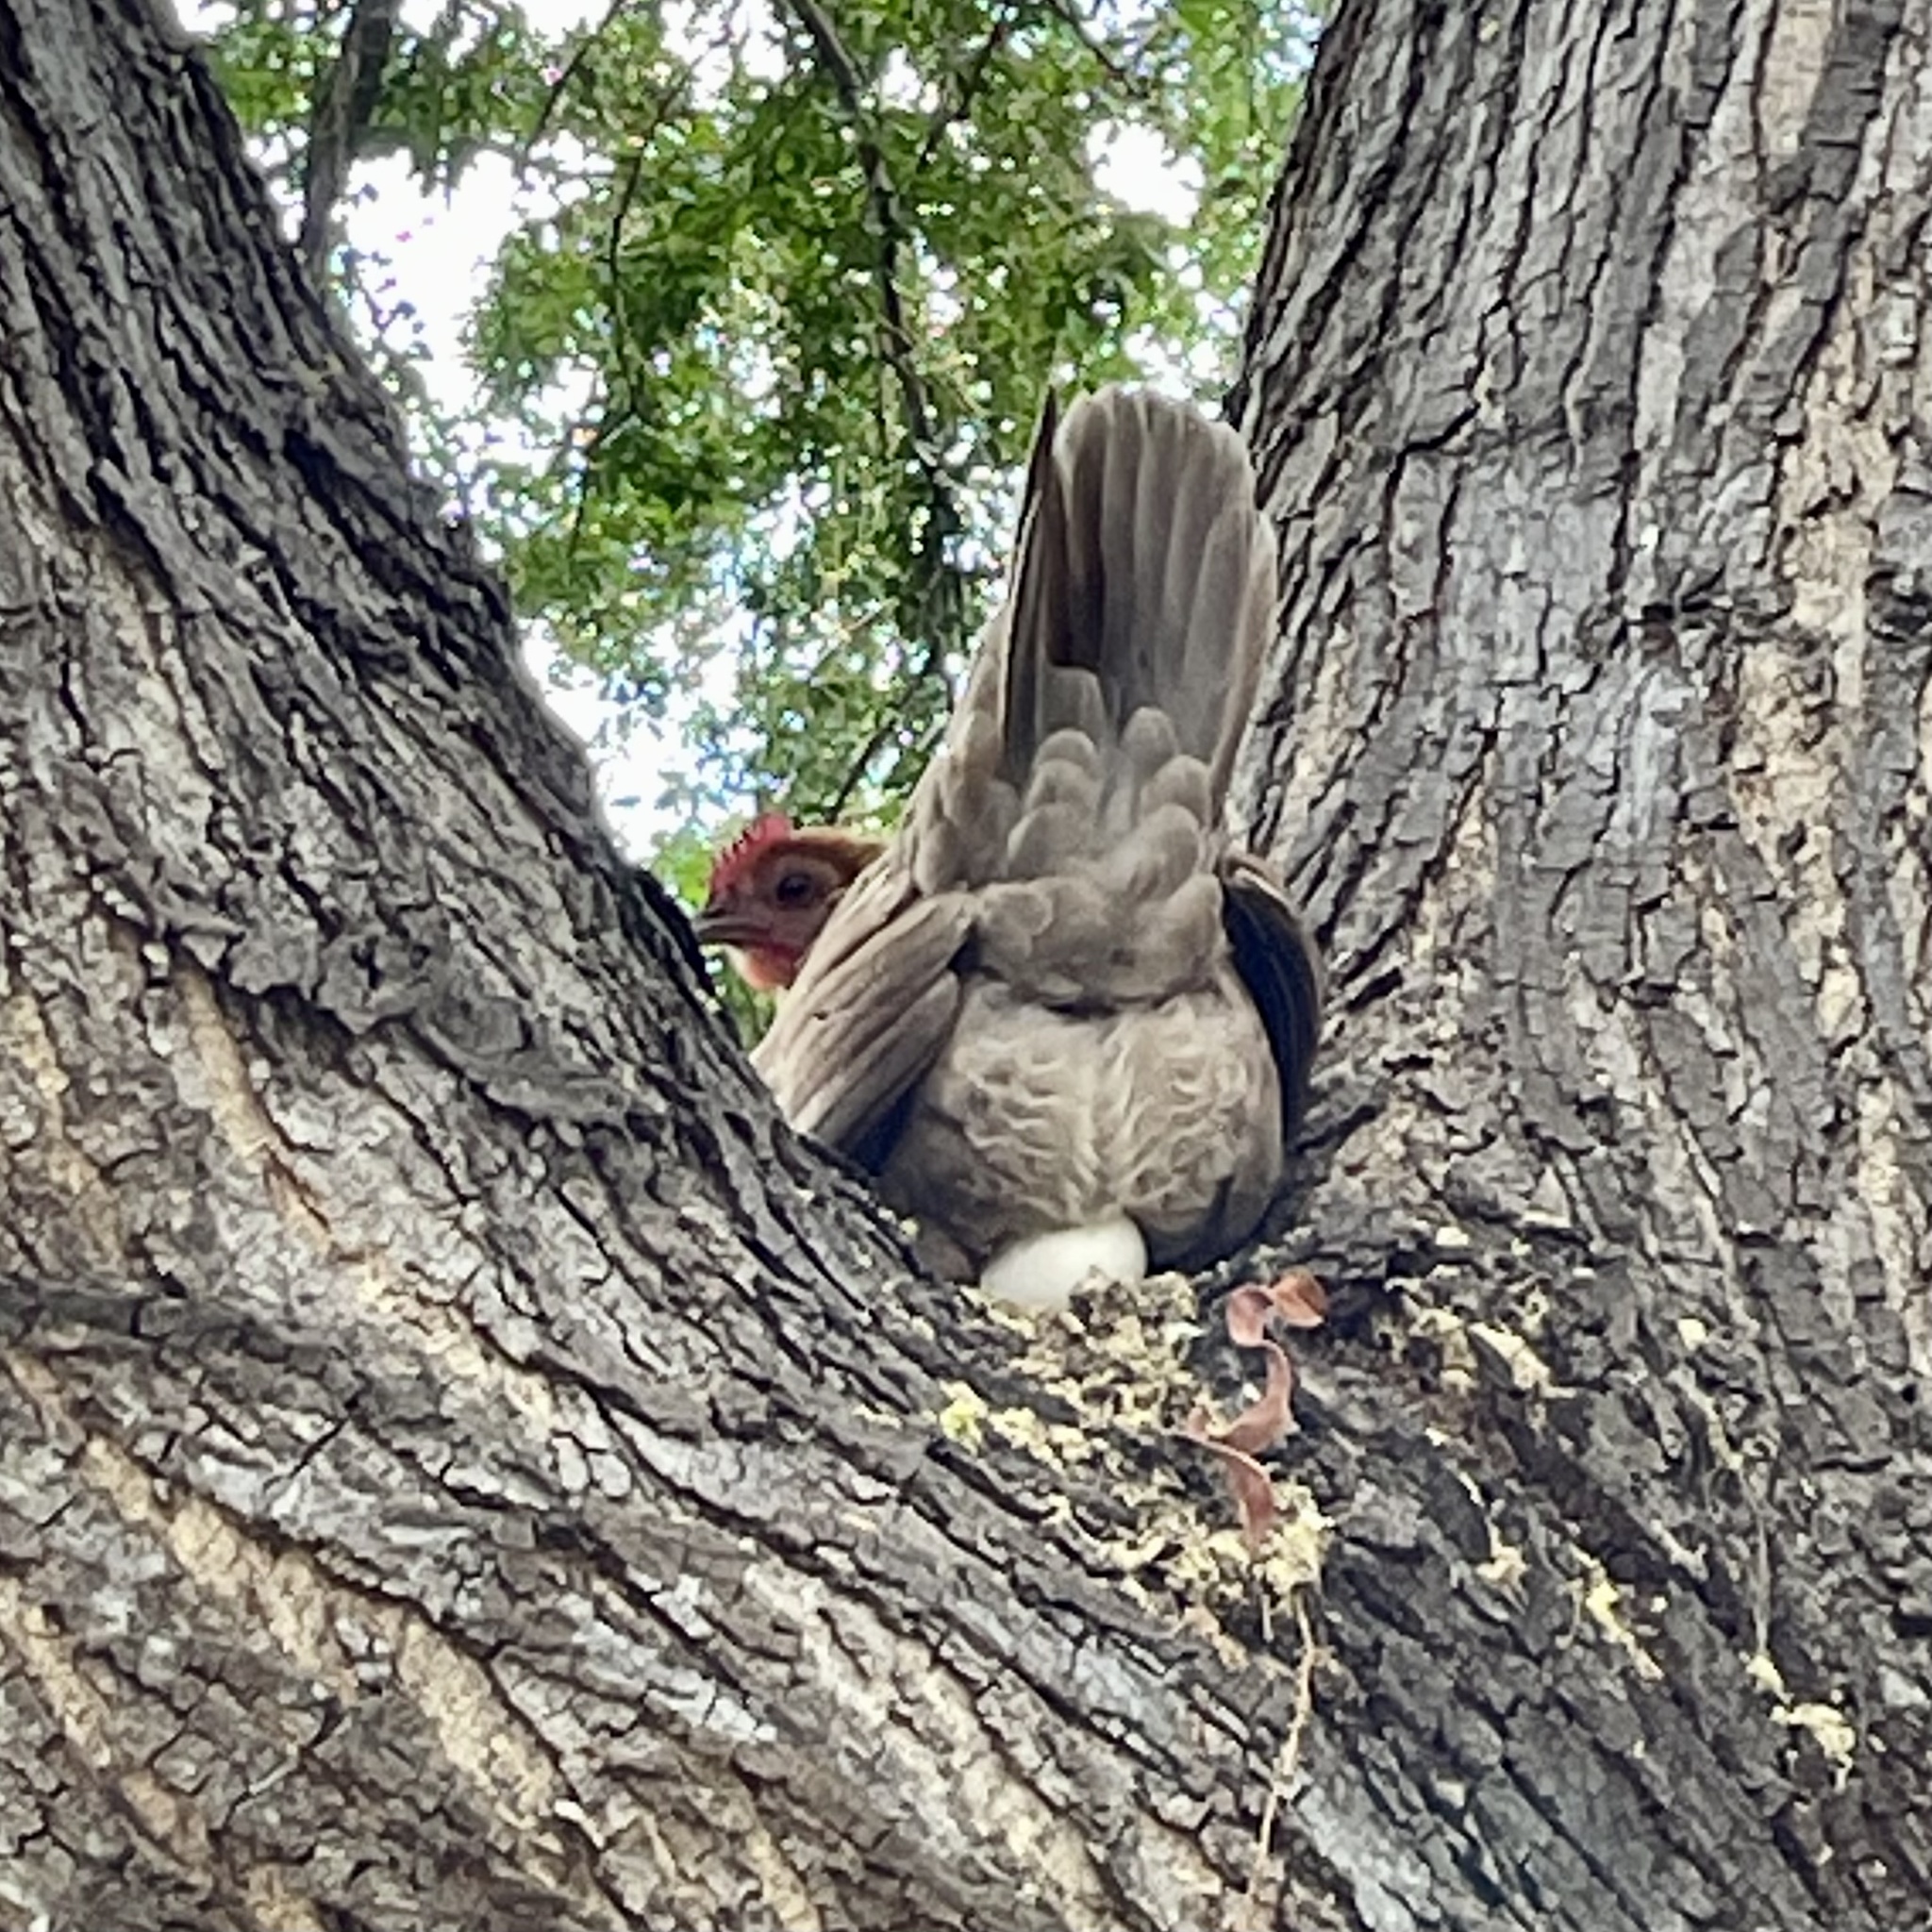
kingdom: Animalia
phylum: Chordata
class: Aves
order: Galliformes
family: Phasianidae
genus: Gallus
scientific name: Gallus gallus
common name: Red junglefowl
